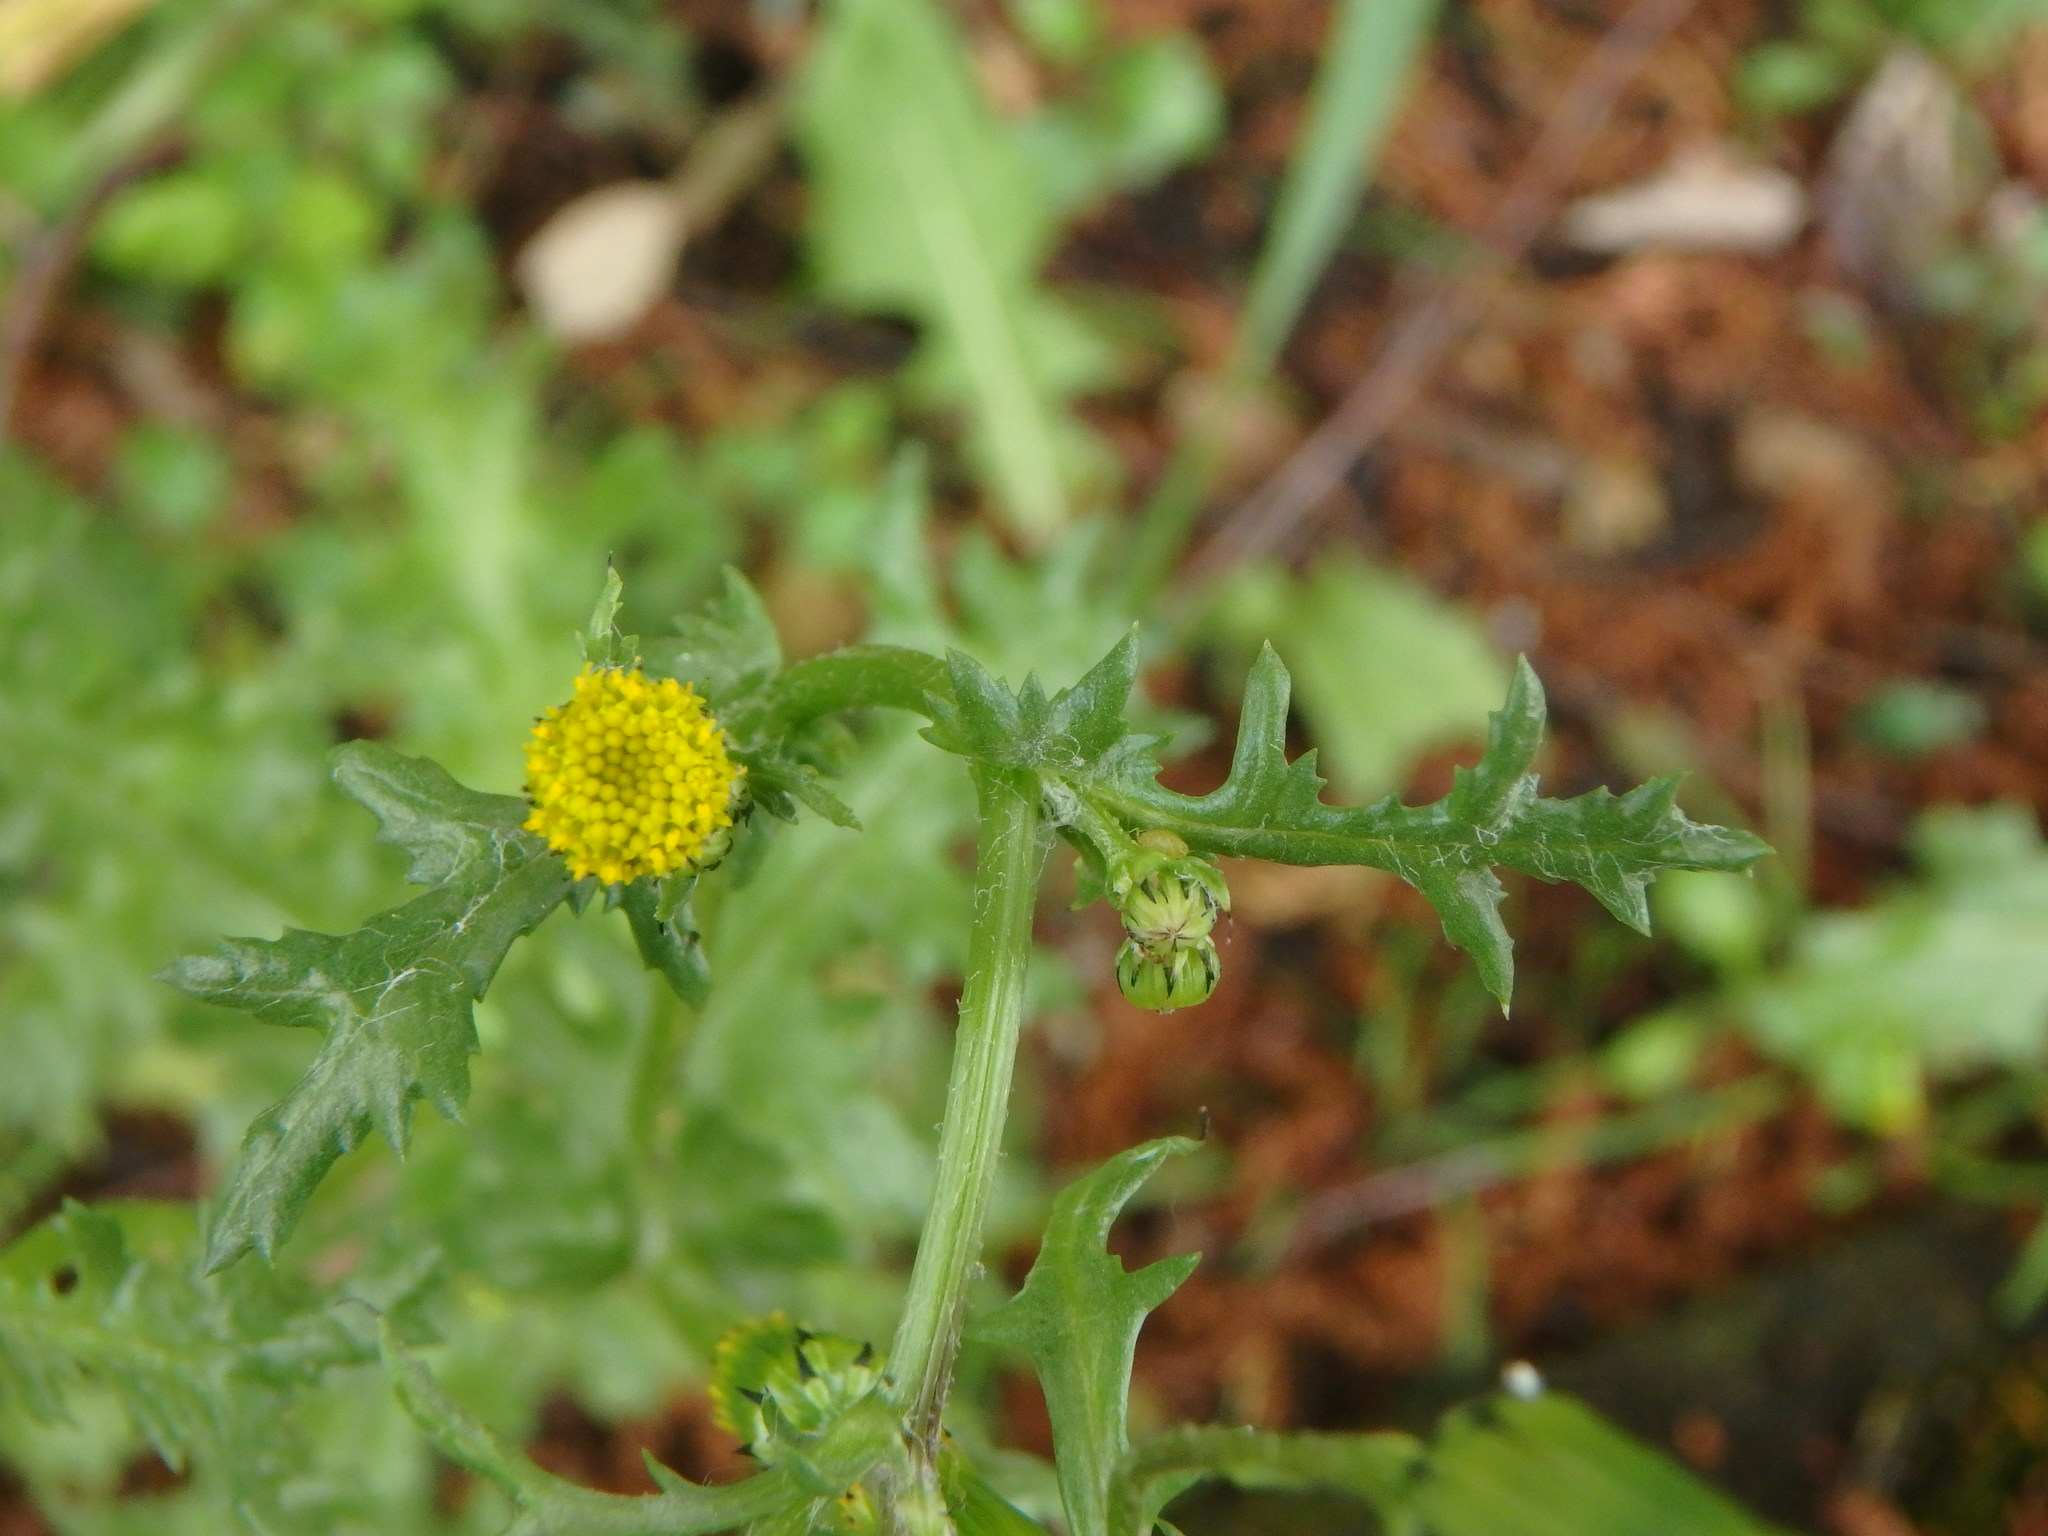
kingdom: Plantae
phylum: Tracheophyta
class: Magnoliopsida
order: Asterales
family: Asteraceae
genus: Senecio
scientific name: Senecio vulgaris
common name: Old-man-in-the-spring
